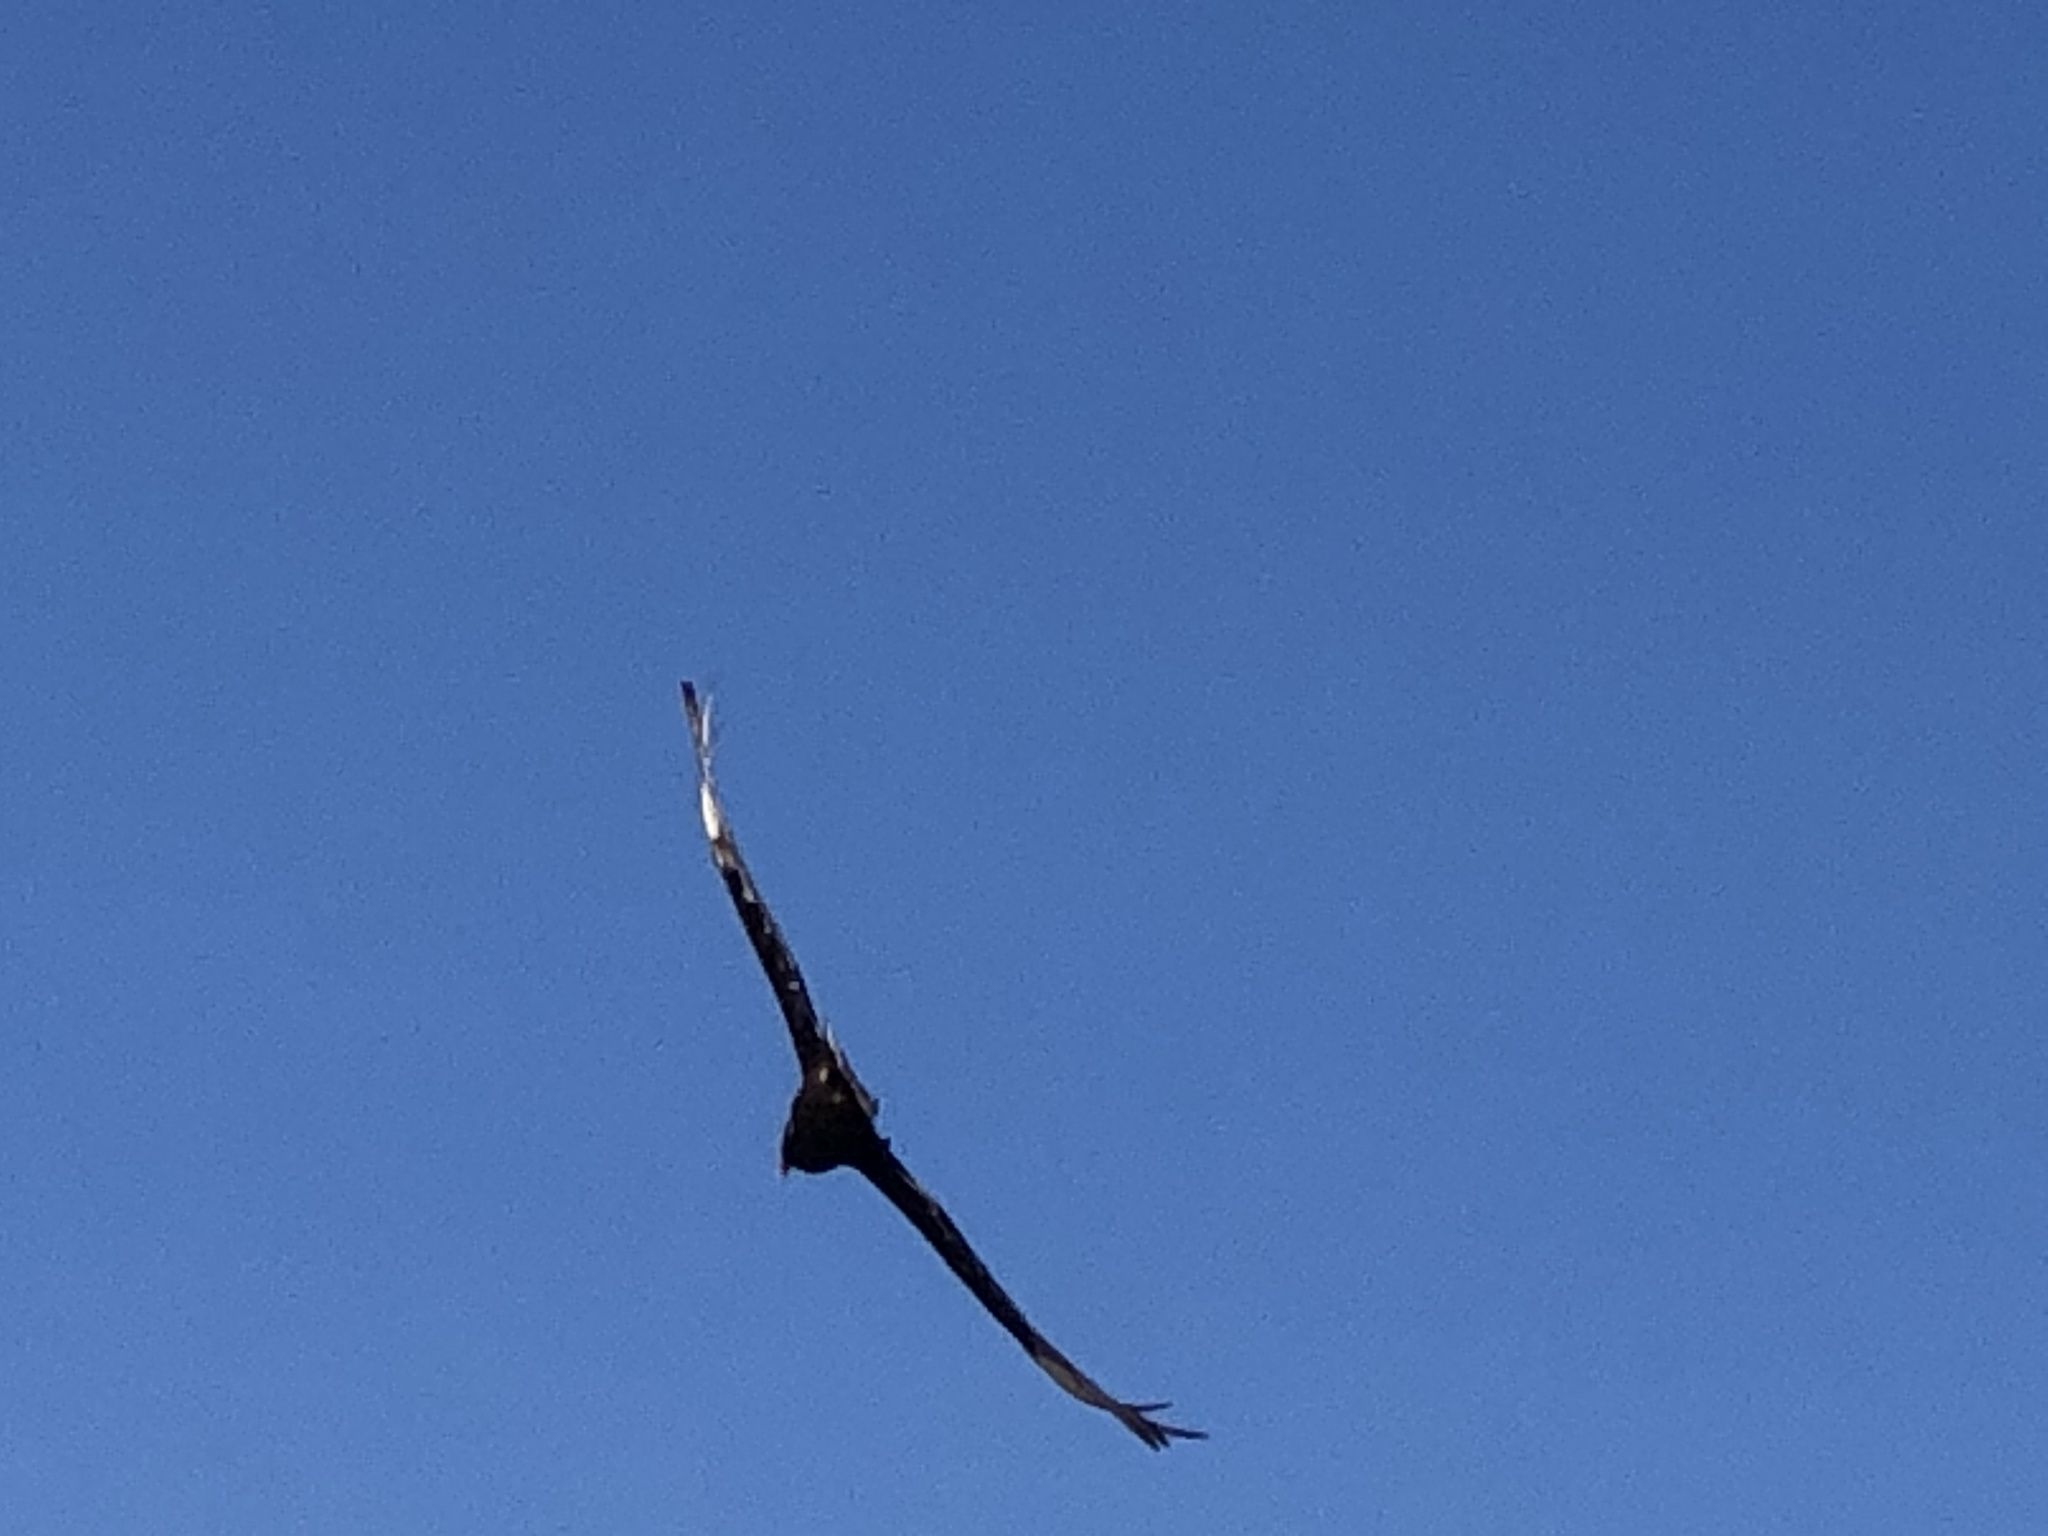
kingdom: Animalia
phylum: Chordata
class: Aves
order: Accipitriformes
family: Cathartidae
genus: Cathartes
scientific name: Cathartes aura
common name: Turkey vulture
